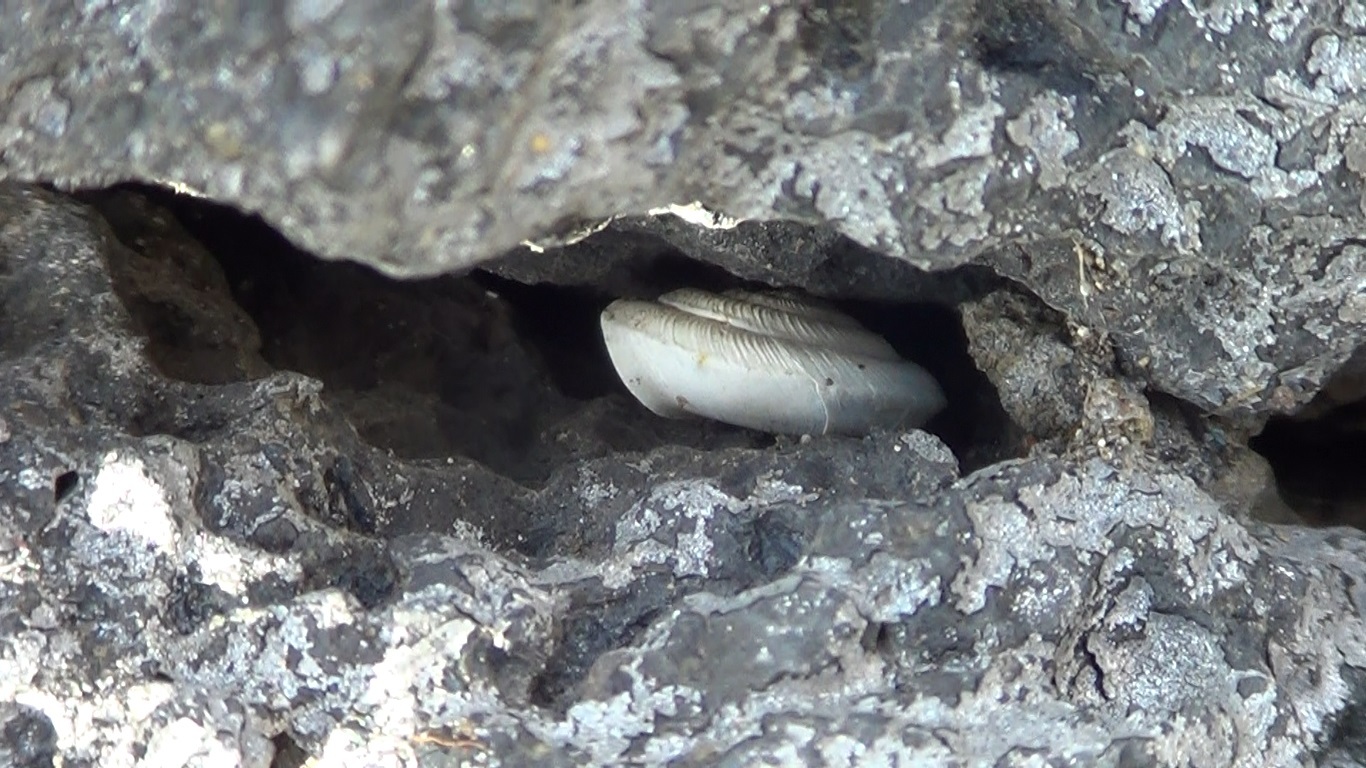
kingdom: Animalia
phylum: Mollusca
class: Gastropoda
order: Stylommatophora
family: Trissexodontidae
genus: Caracollina
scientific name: Caracollina lenticula
